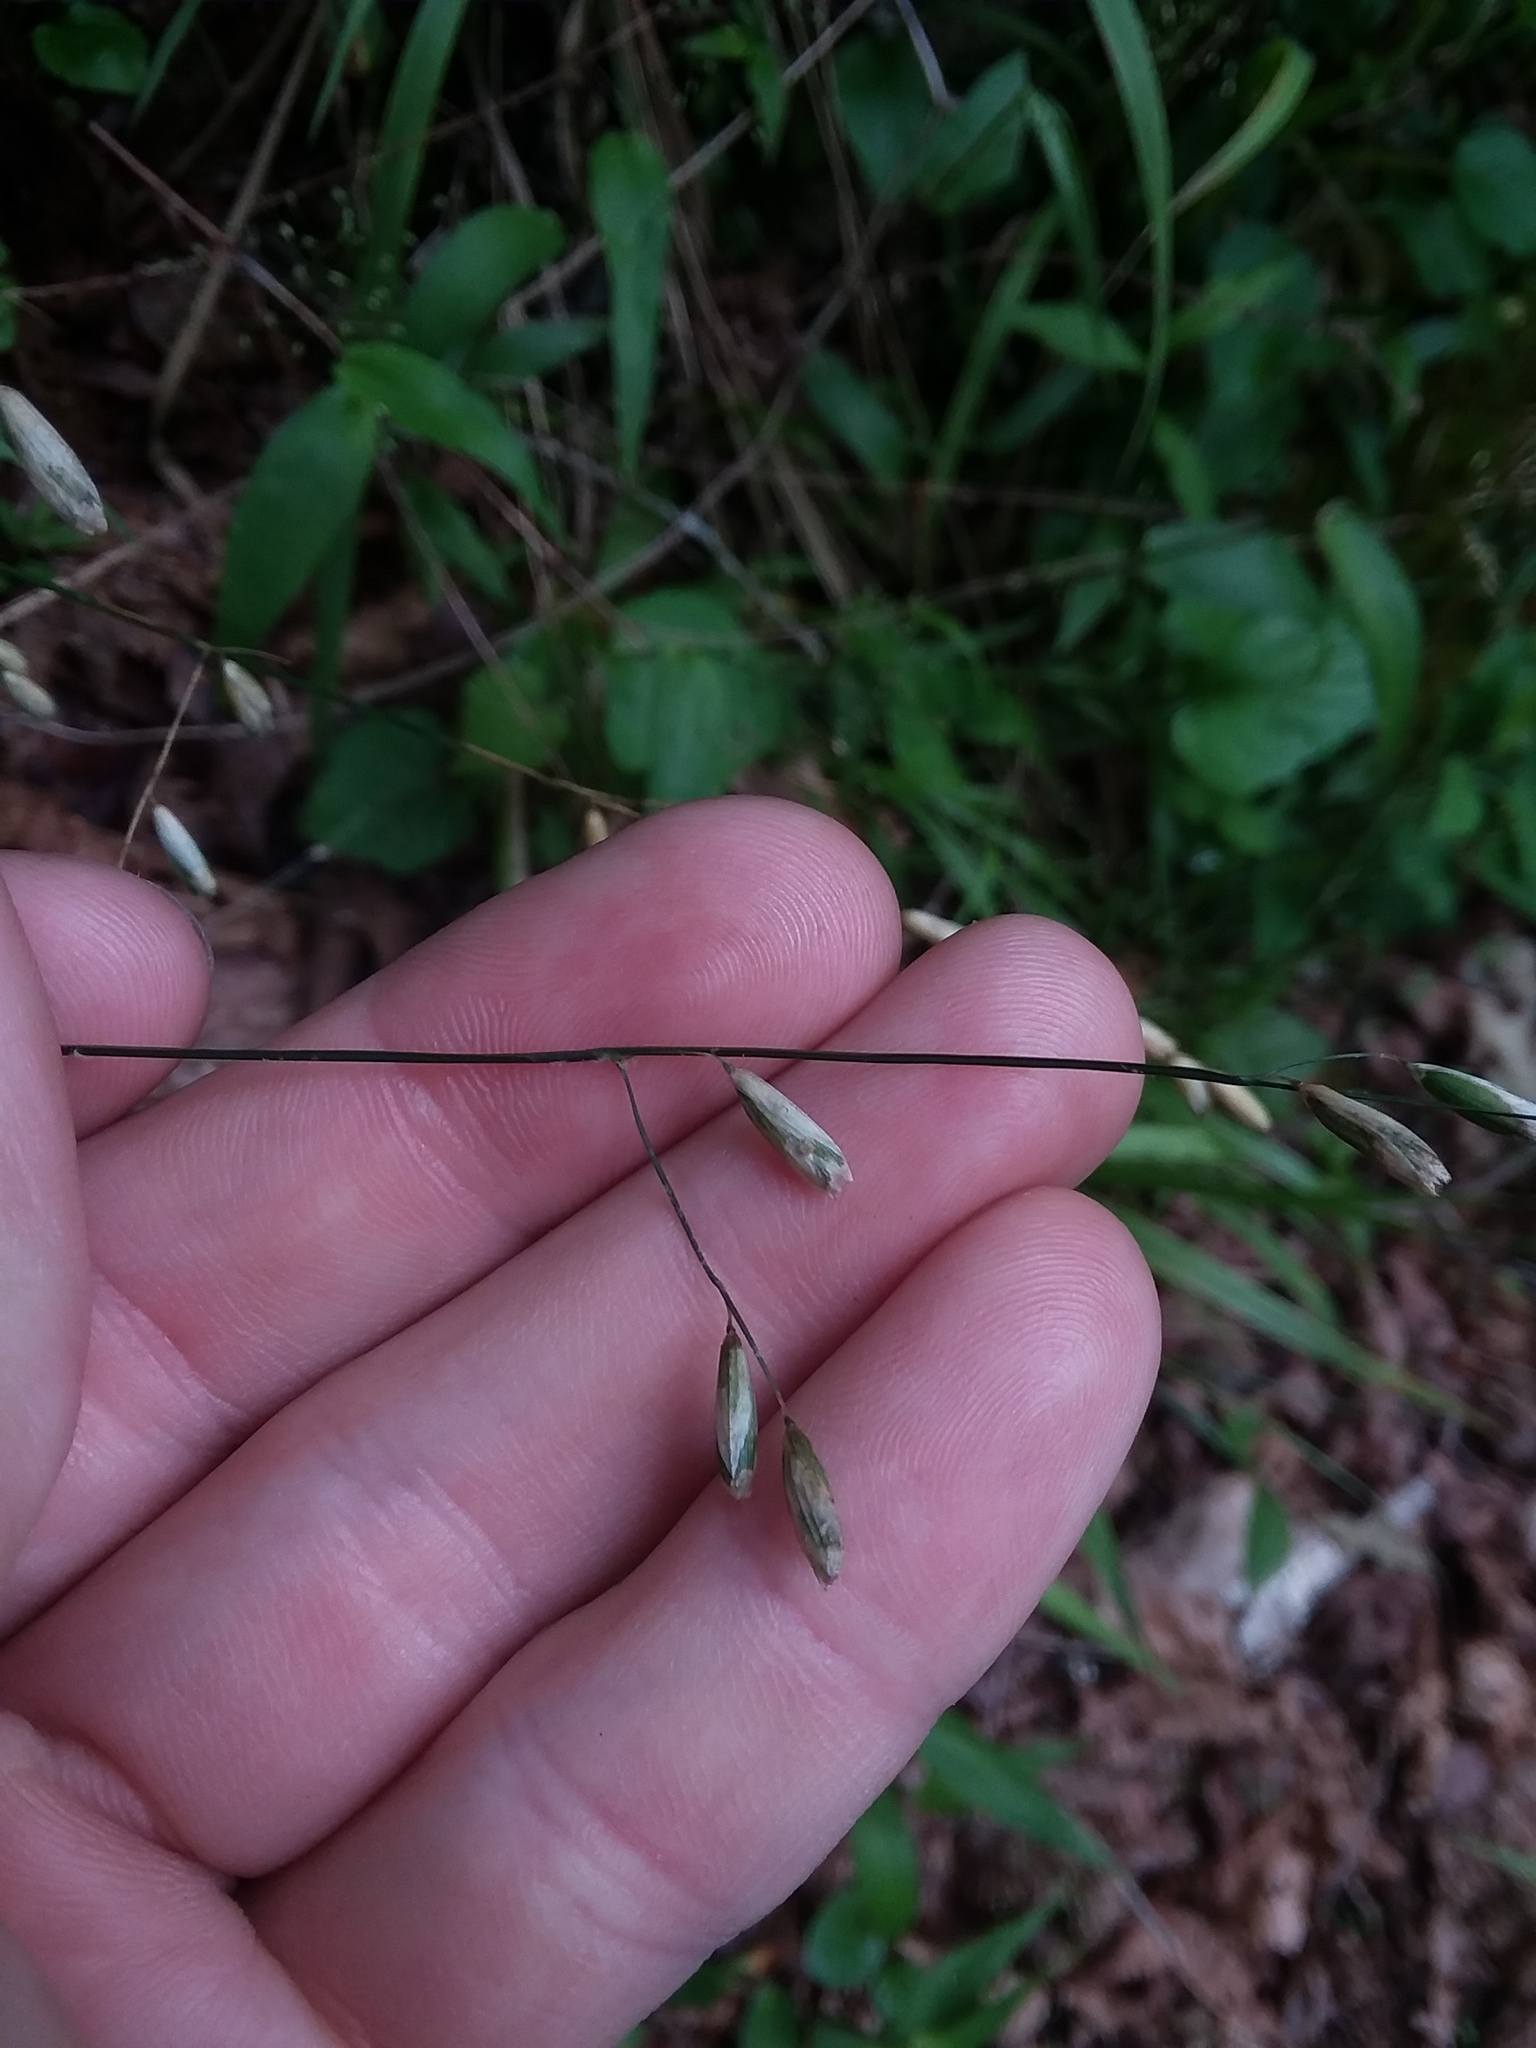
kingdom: Plantae
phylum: Tracheophyta
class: Liliopsida
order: Poales
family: Poaceae
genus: Melica
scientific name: Melica mutica
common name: Two-flower melic
